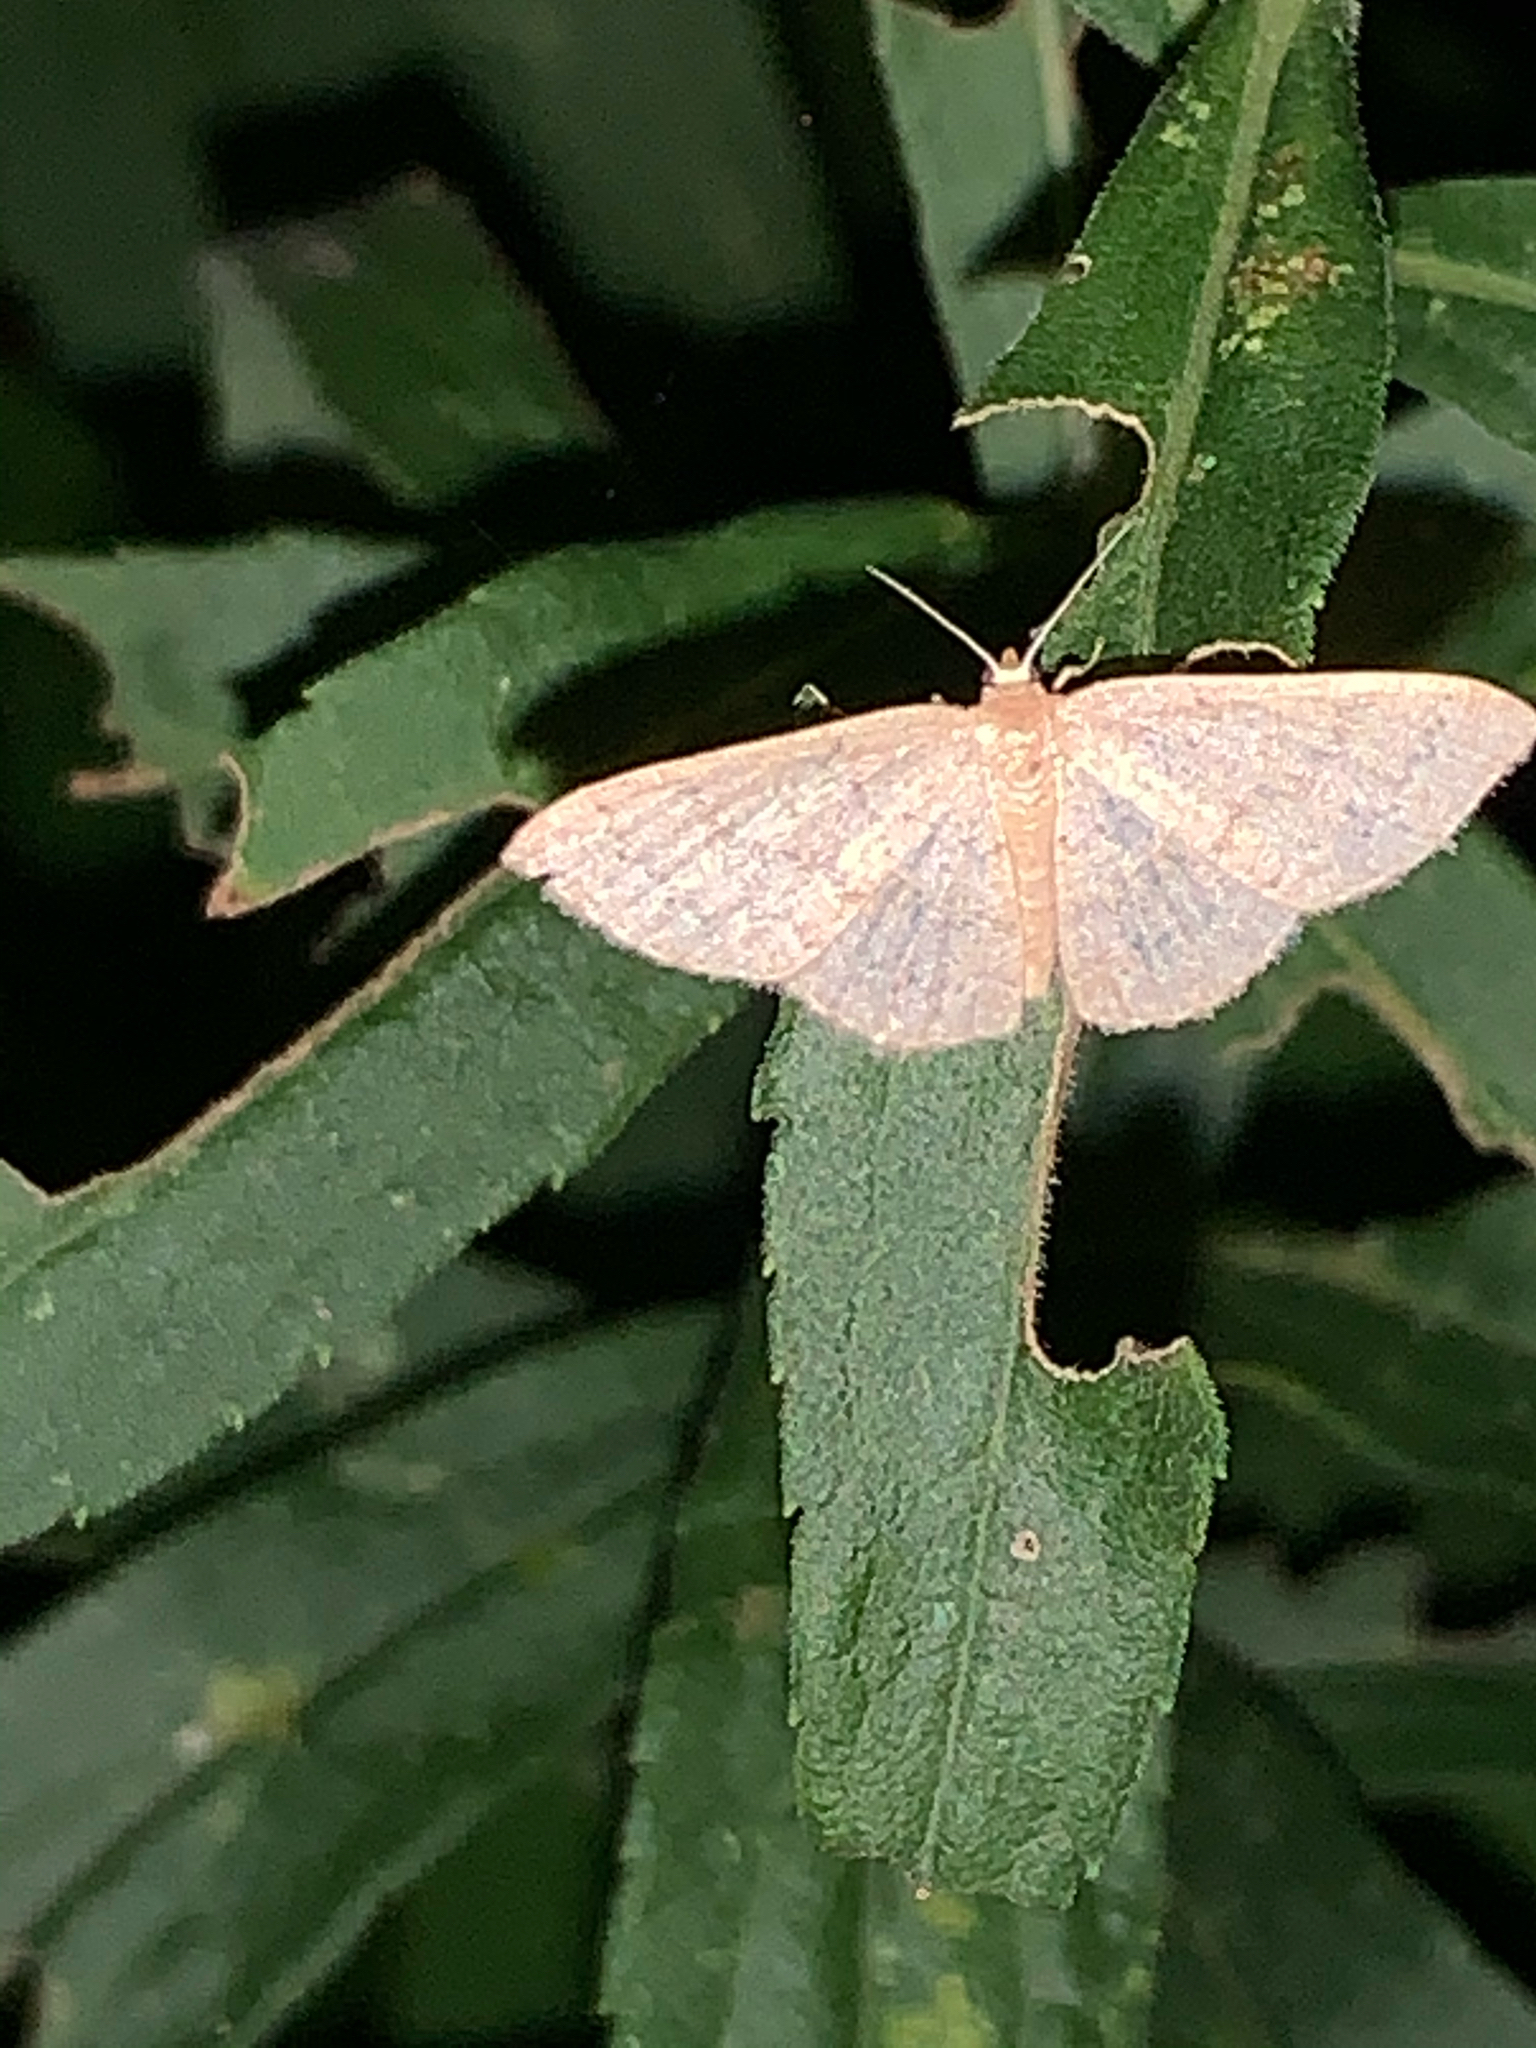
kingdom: Animalia
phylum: Arthropoda
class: Insecta
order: Lepidoptera
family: Geometridae
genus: Pleuroprucha
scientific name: Pleuroprucha insulsaria
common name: Common tan wave
